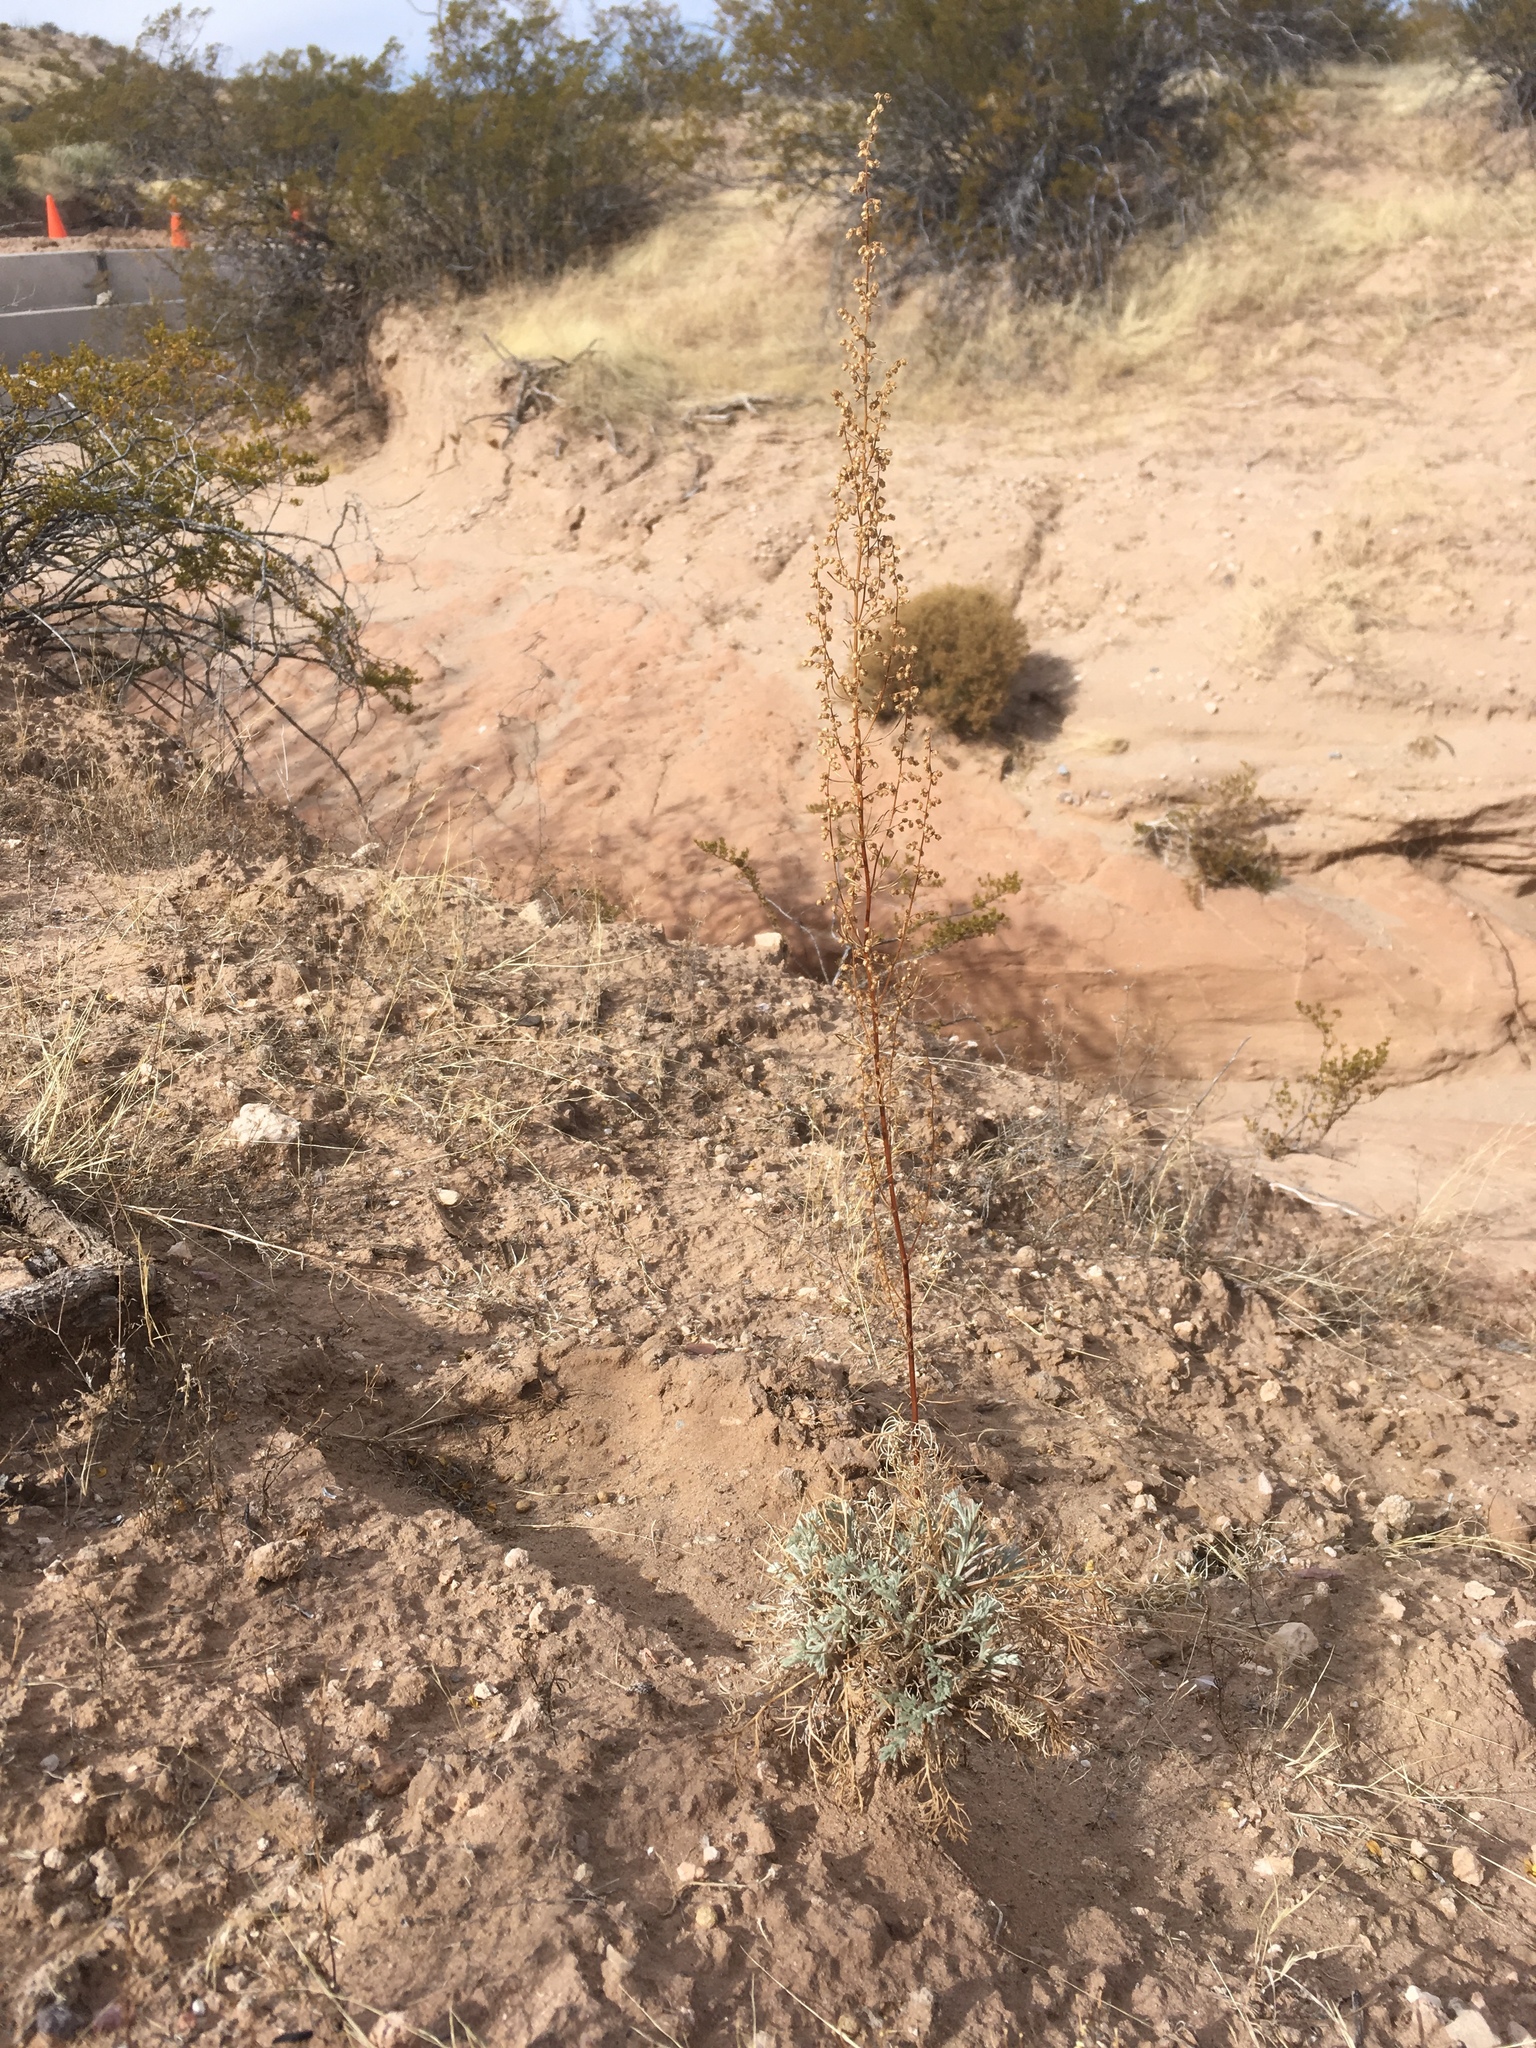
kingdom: Plantae
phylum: Tracheophyta
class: Magnoliopsida
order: Asterales
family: Asteraceae
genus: Artemisia
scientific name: Artemisia campestris
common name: Field wormwood
